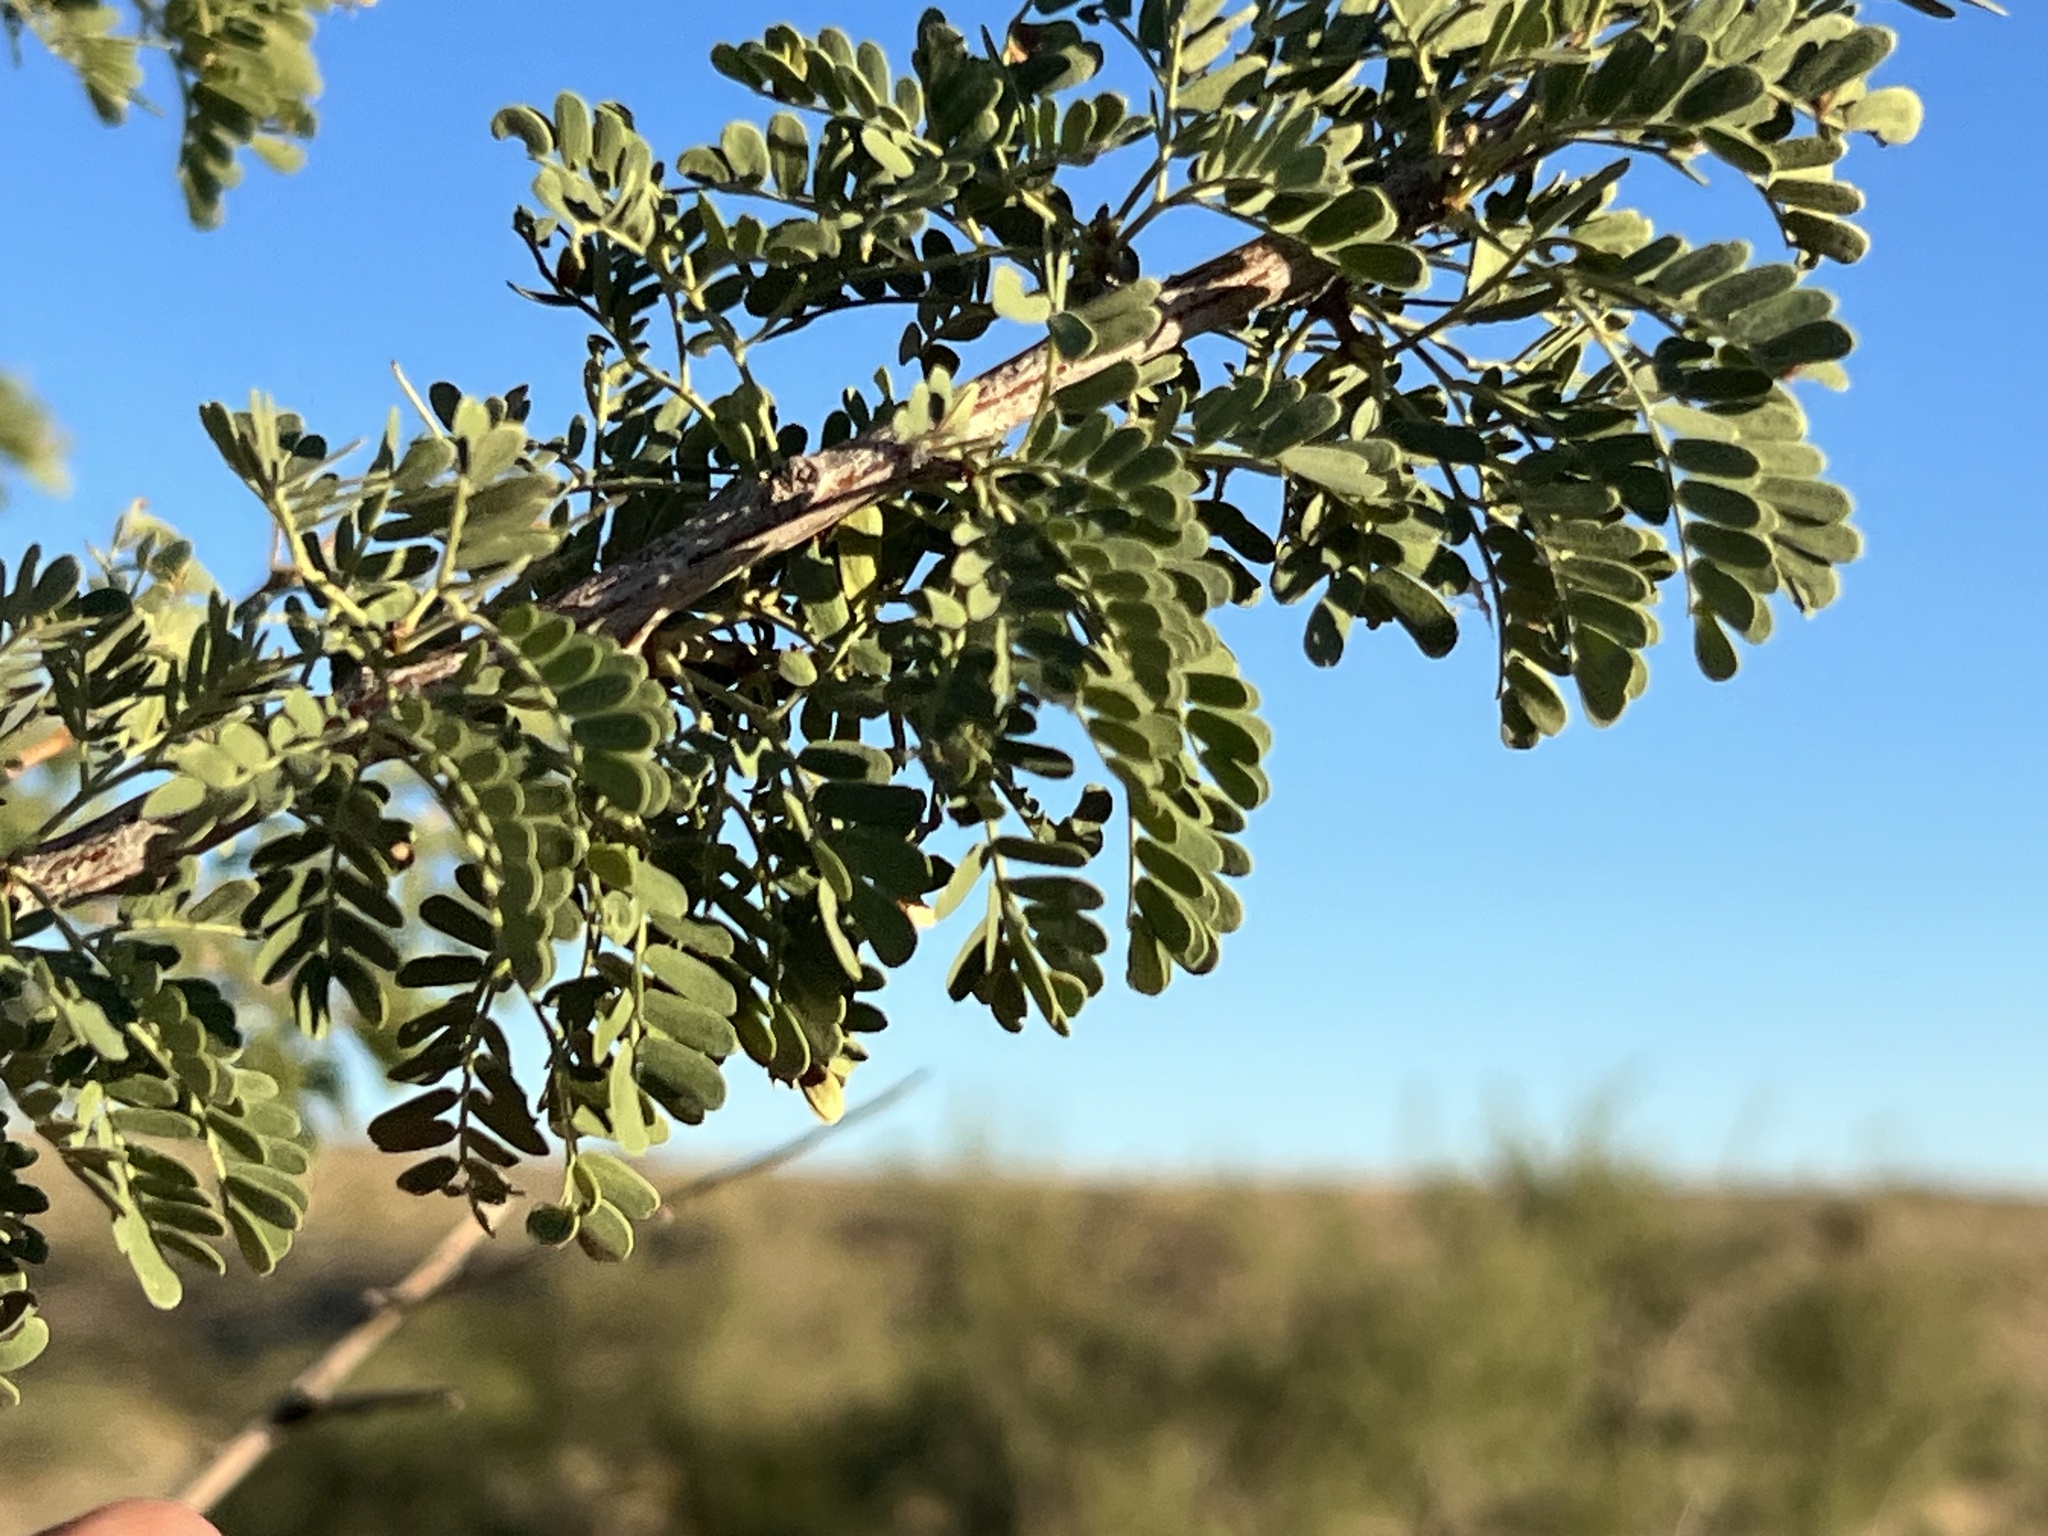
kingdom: Plantae
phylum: Tracheophyta
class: Magnoliopsida
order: Fabales
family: Fabaceae
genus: Senegalia
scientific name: Senegalia greggii
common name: Texas-mimosa
